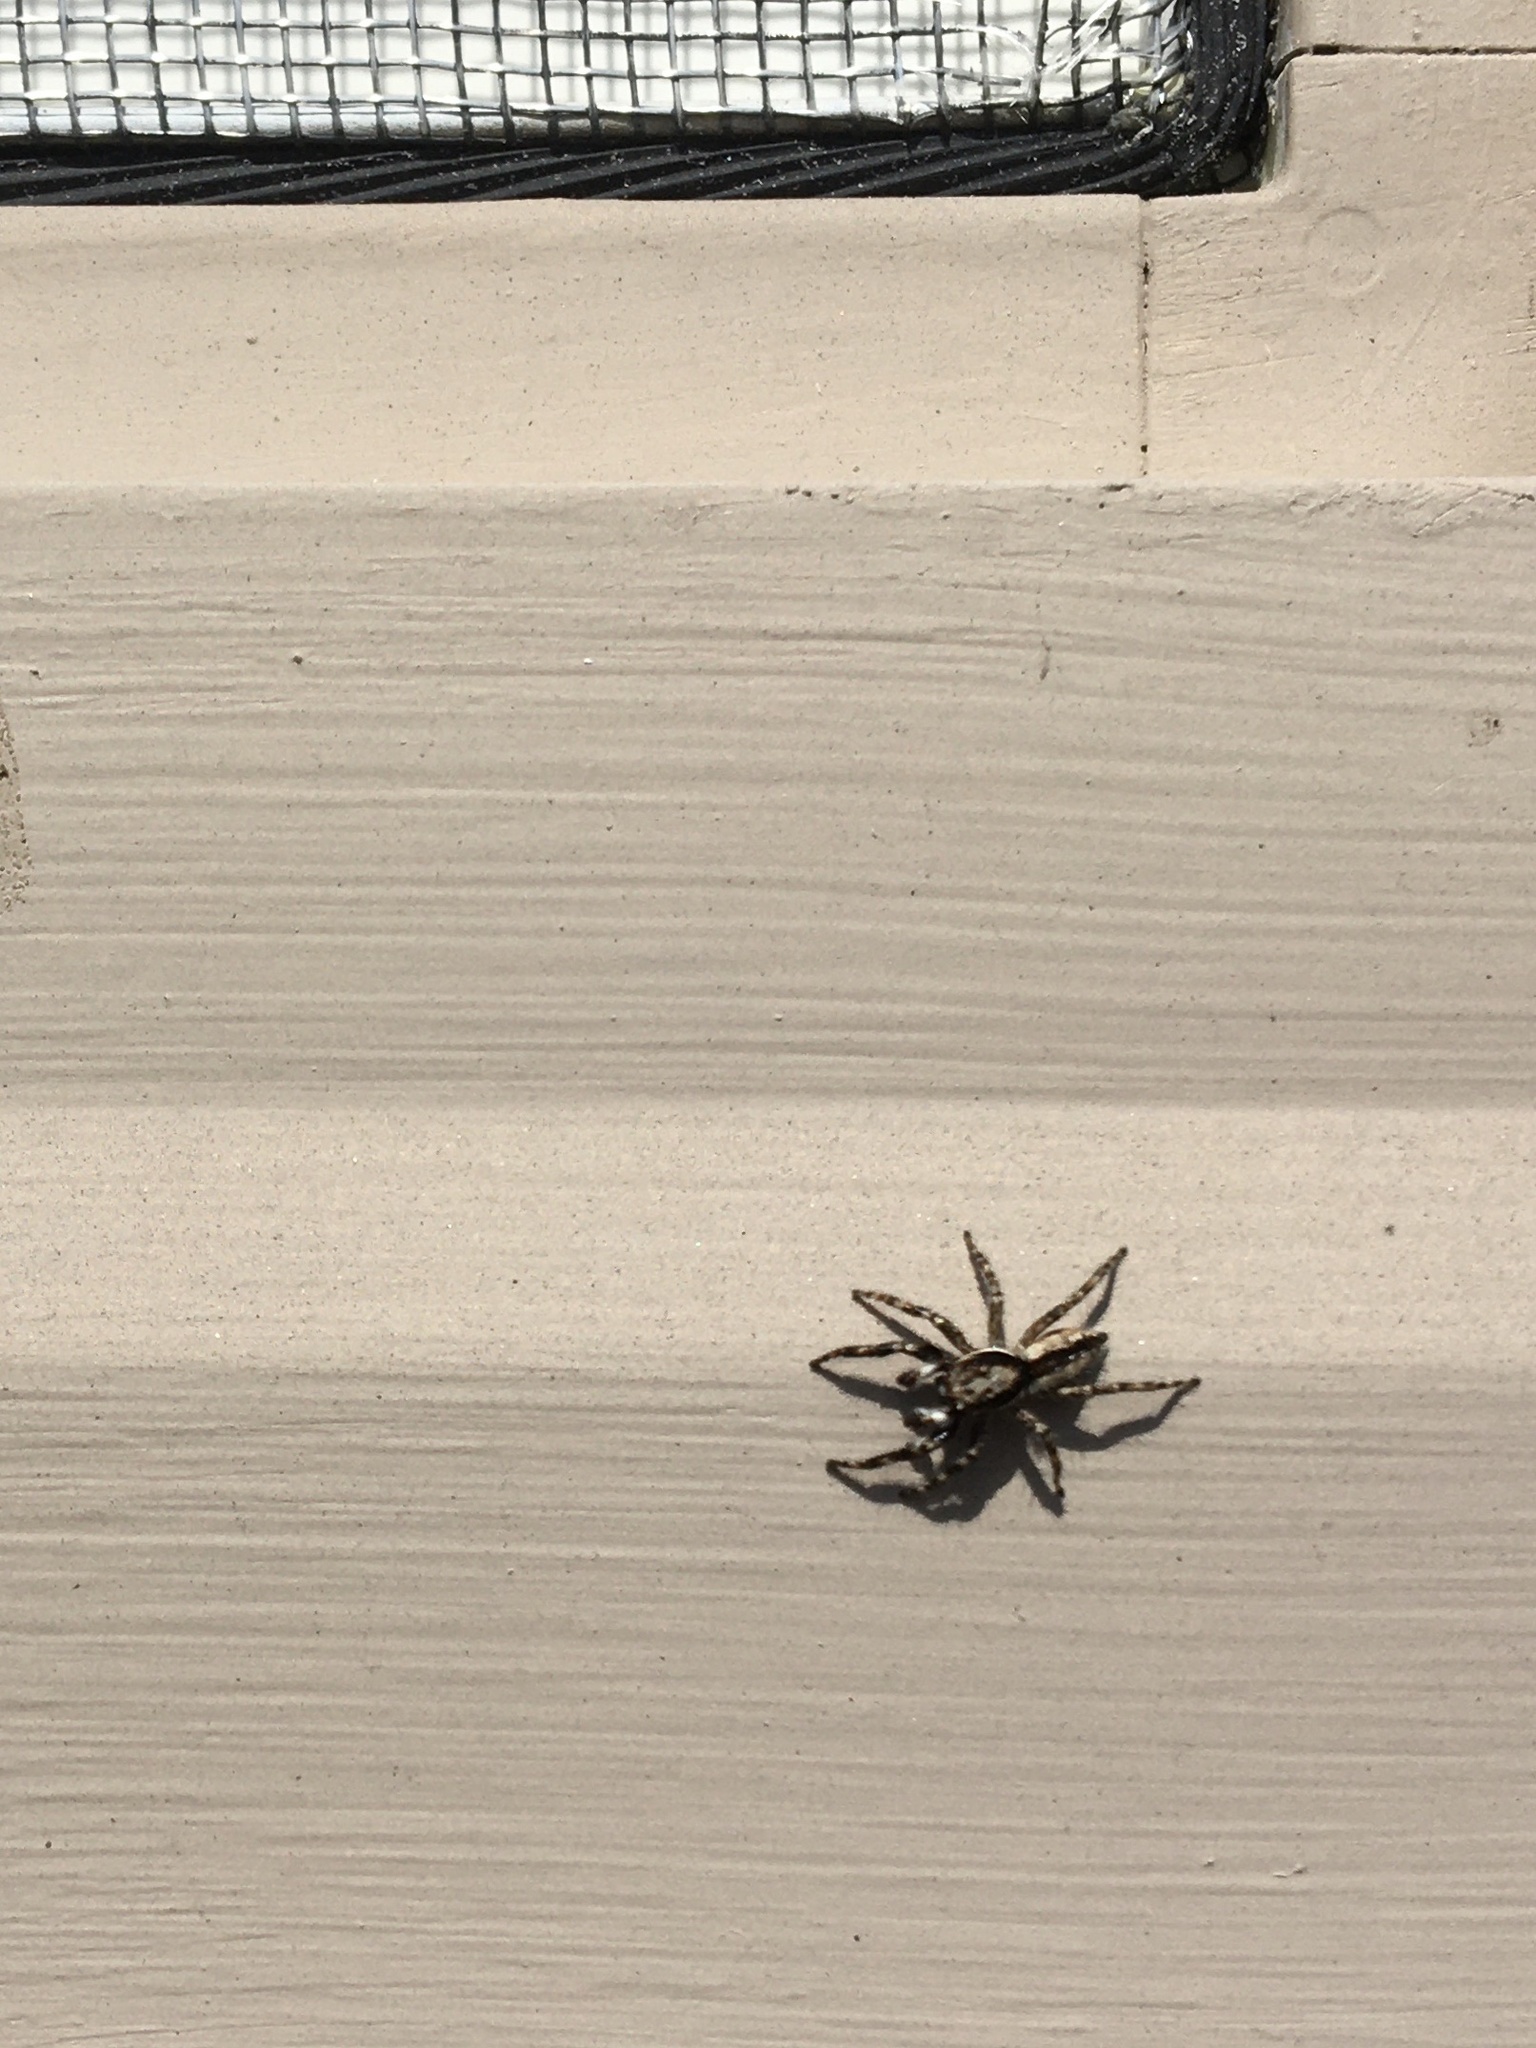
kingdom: Animalia
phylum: Arthropoda
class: Arachnida
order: Araneae
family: Salticidae
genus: Menemerus
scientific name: Menemerus bivittatus
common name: Gray wall jumper
